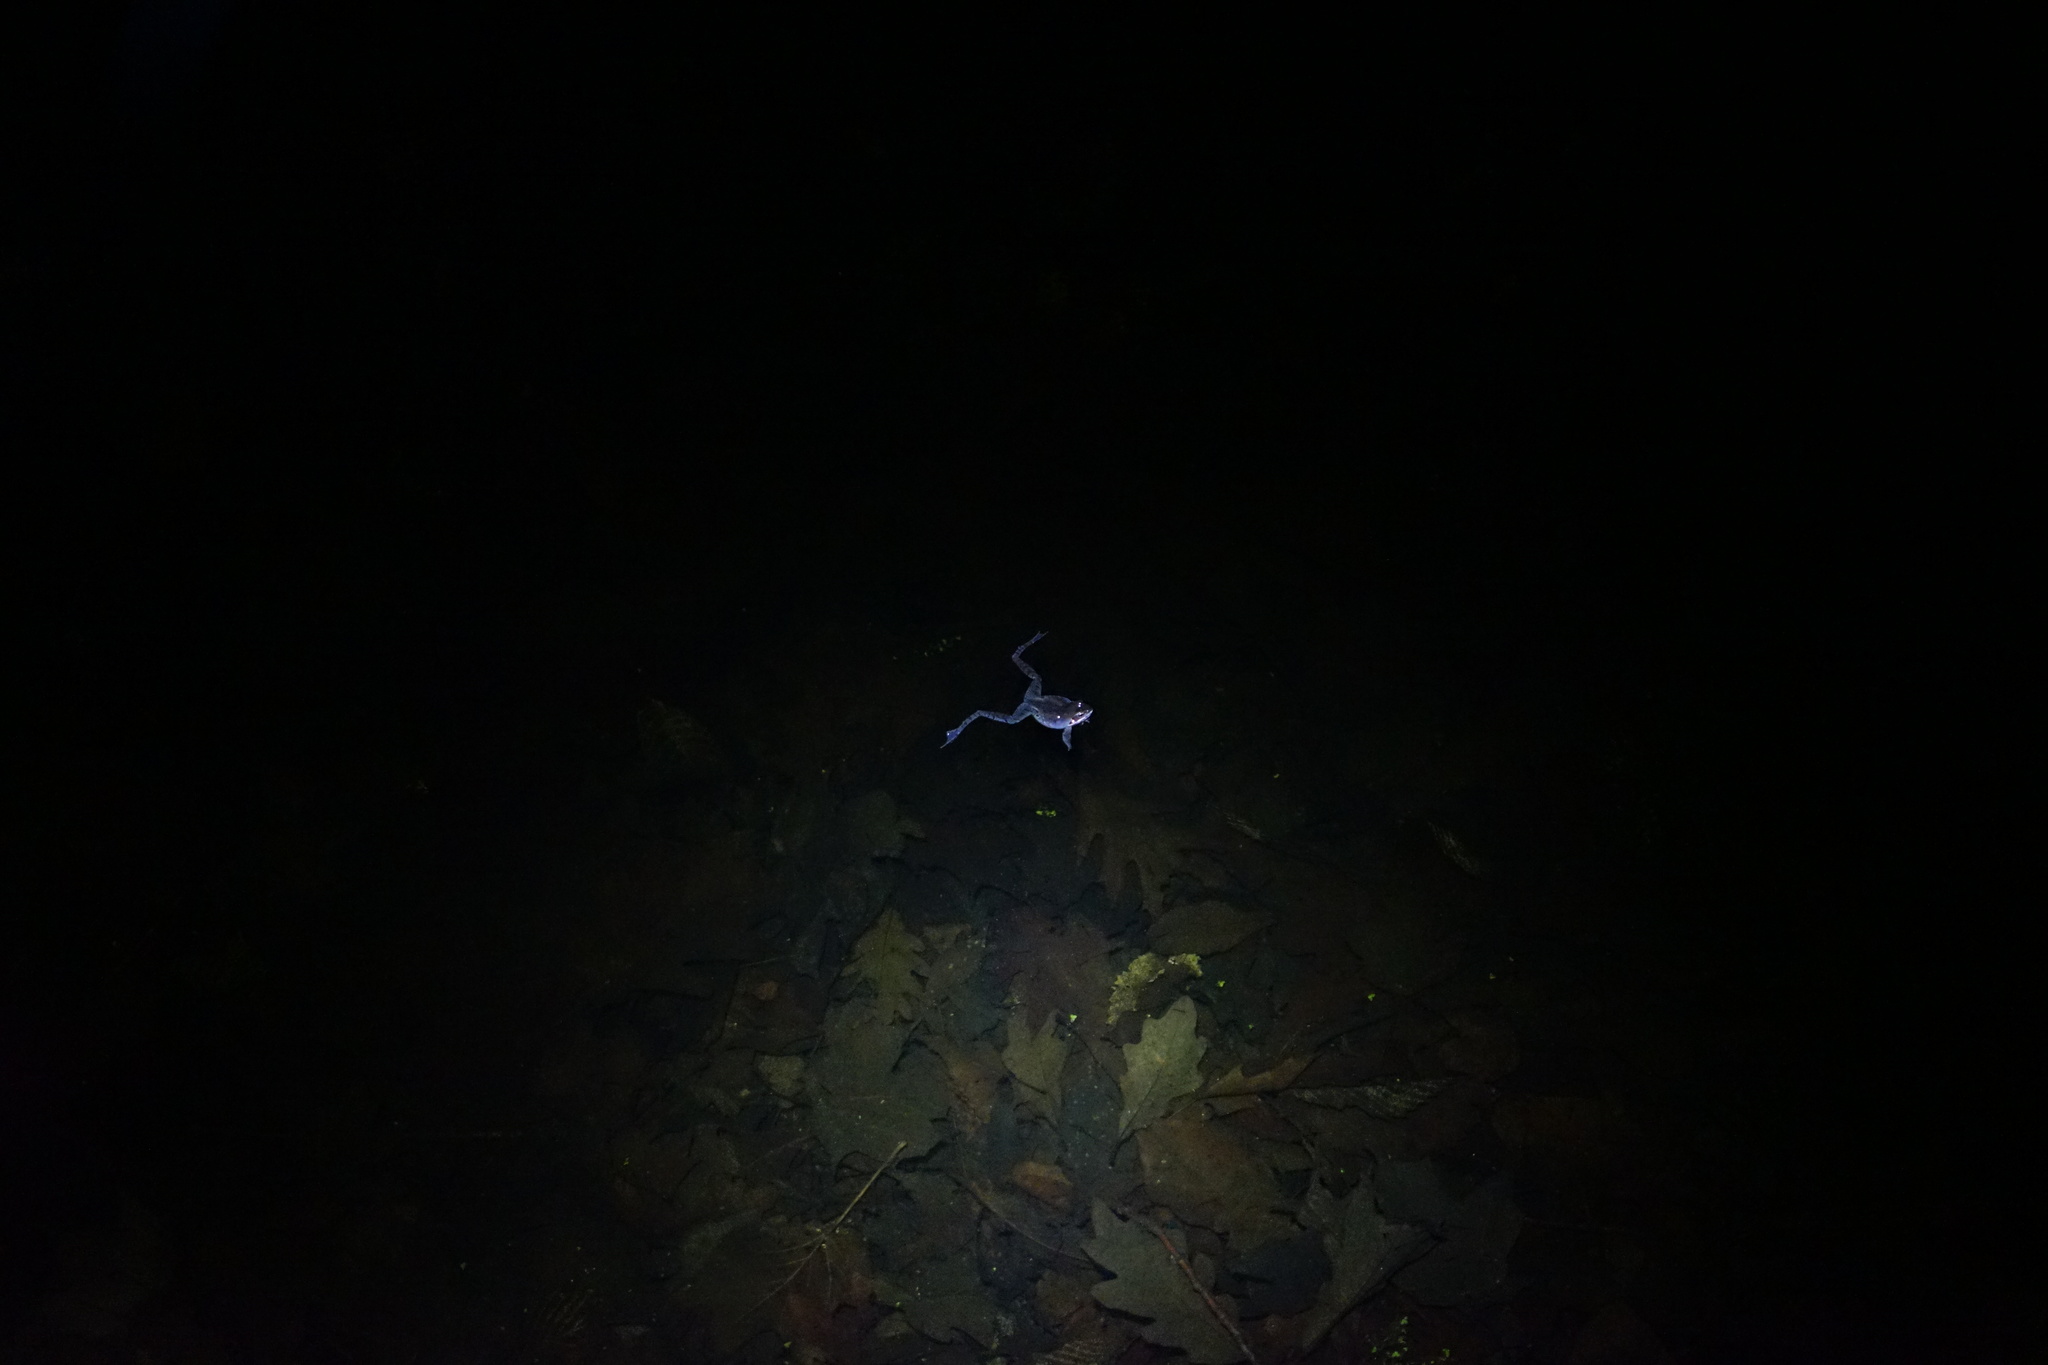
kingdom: Animalia
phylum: Chordata
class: Amphibia
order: Anura
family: Ranidae
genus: Lithobates
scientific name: Lithobates sylvaticus
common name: Wood frog
